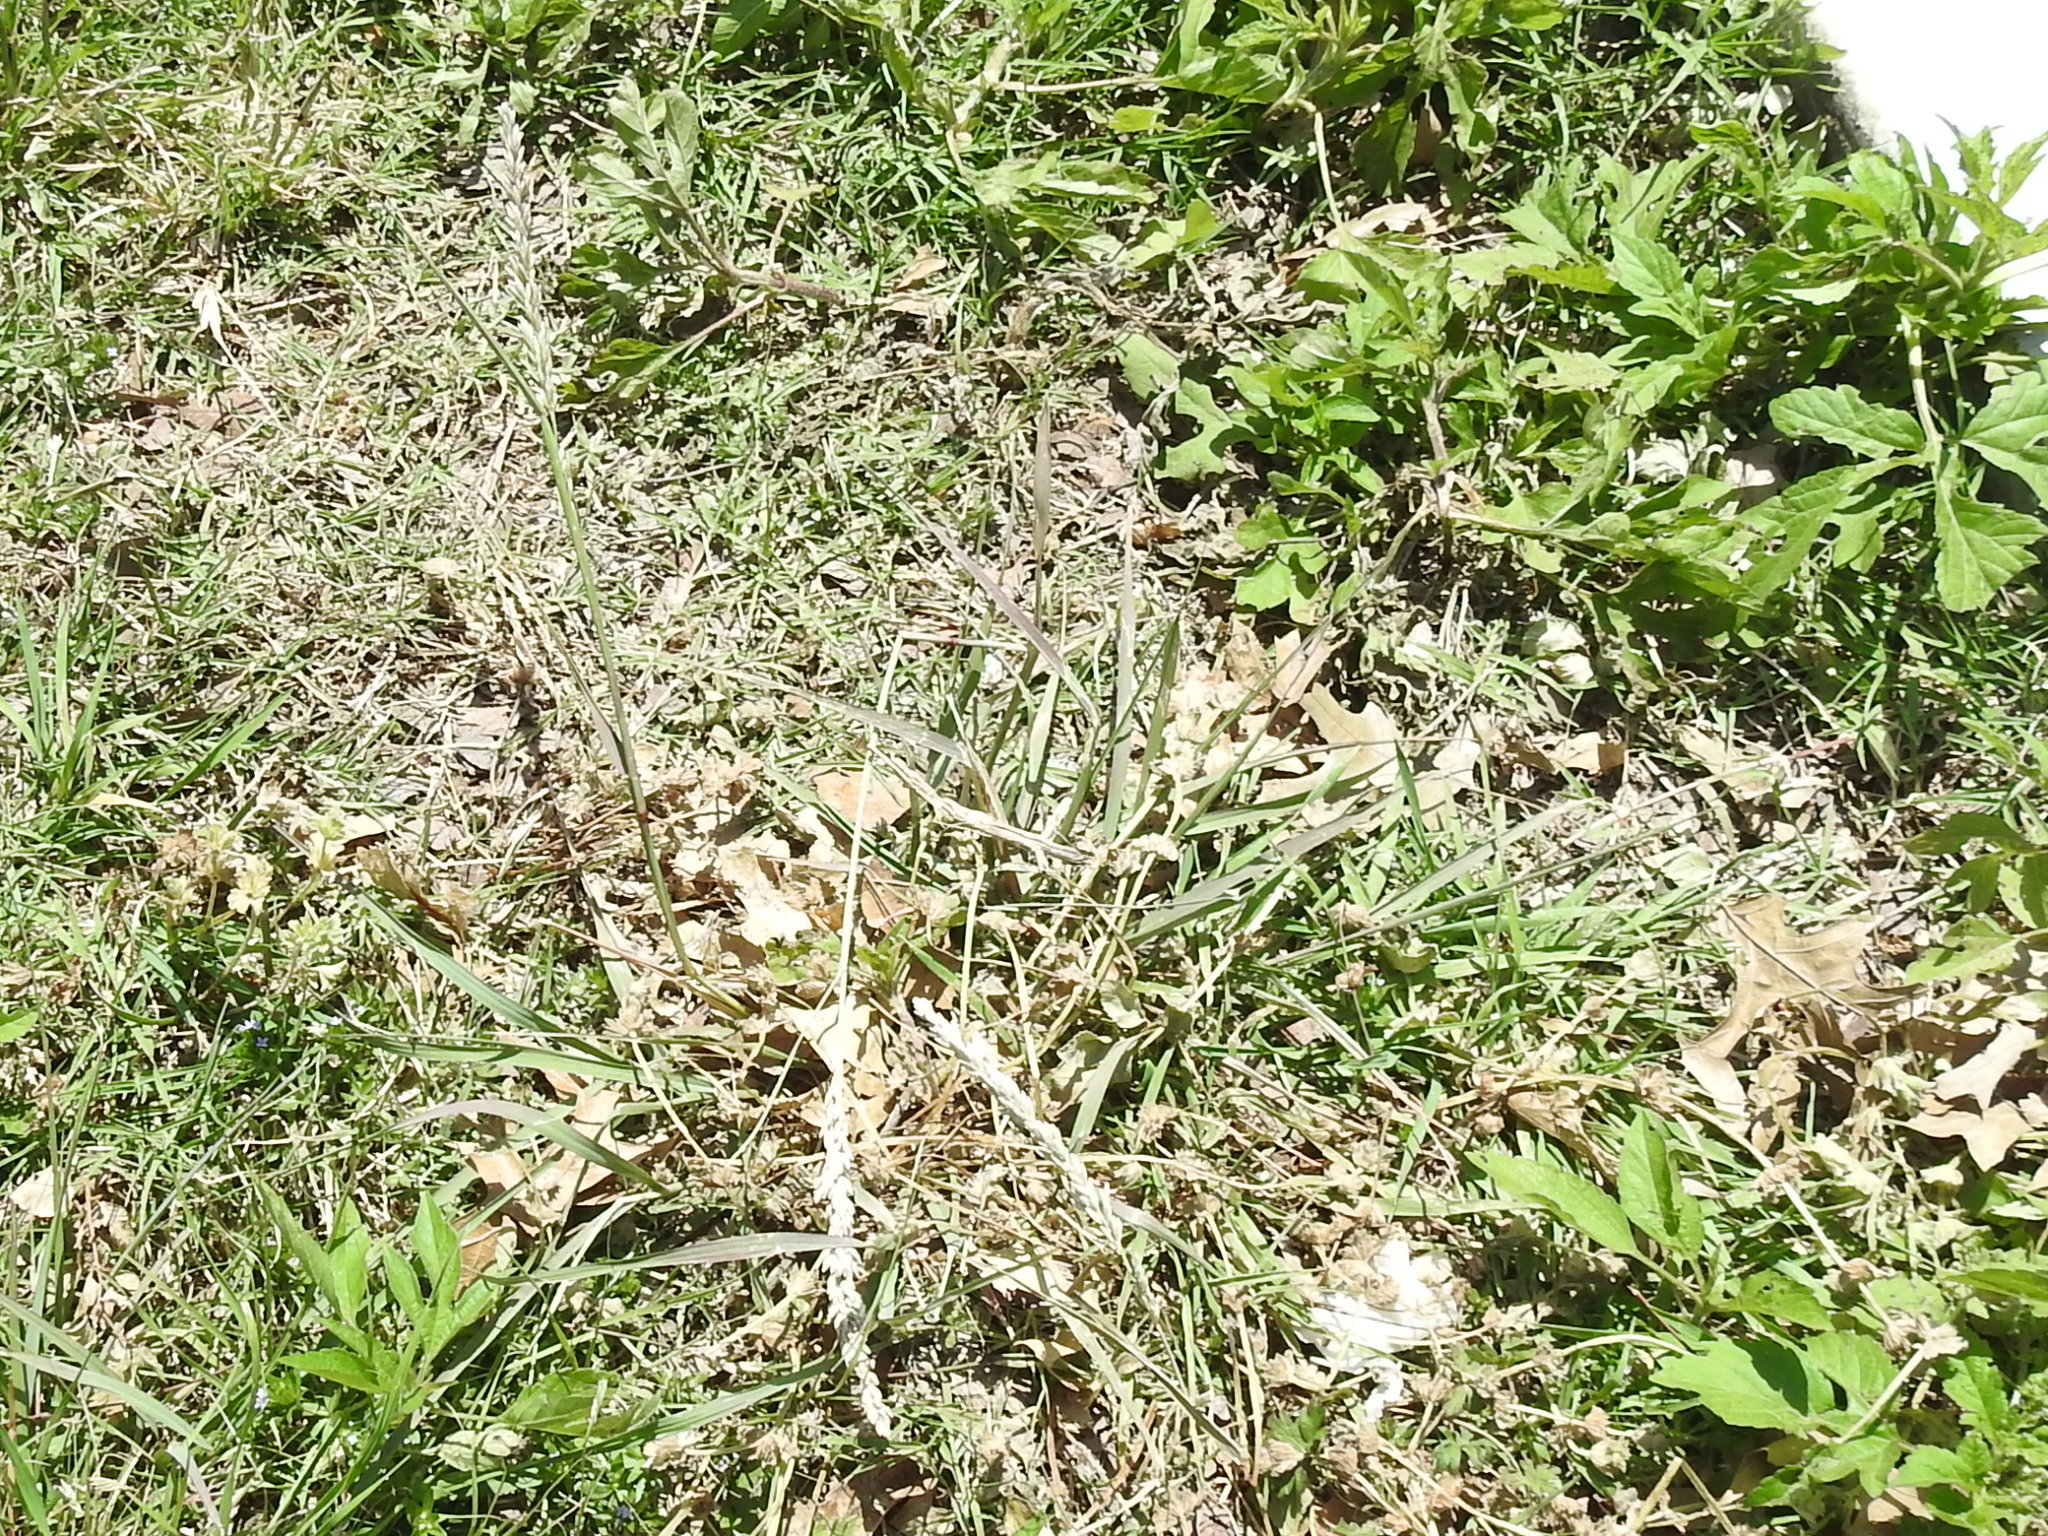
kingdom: Plantae
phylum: Tracheophyta
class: Liliopsida
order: Poales
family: Poaceae
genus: Tridens
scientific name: Tridens albescens
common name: White tridens
